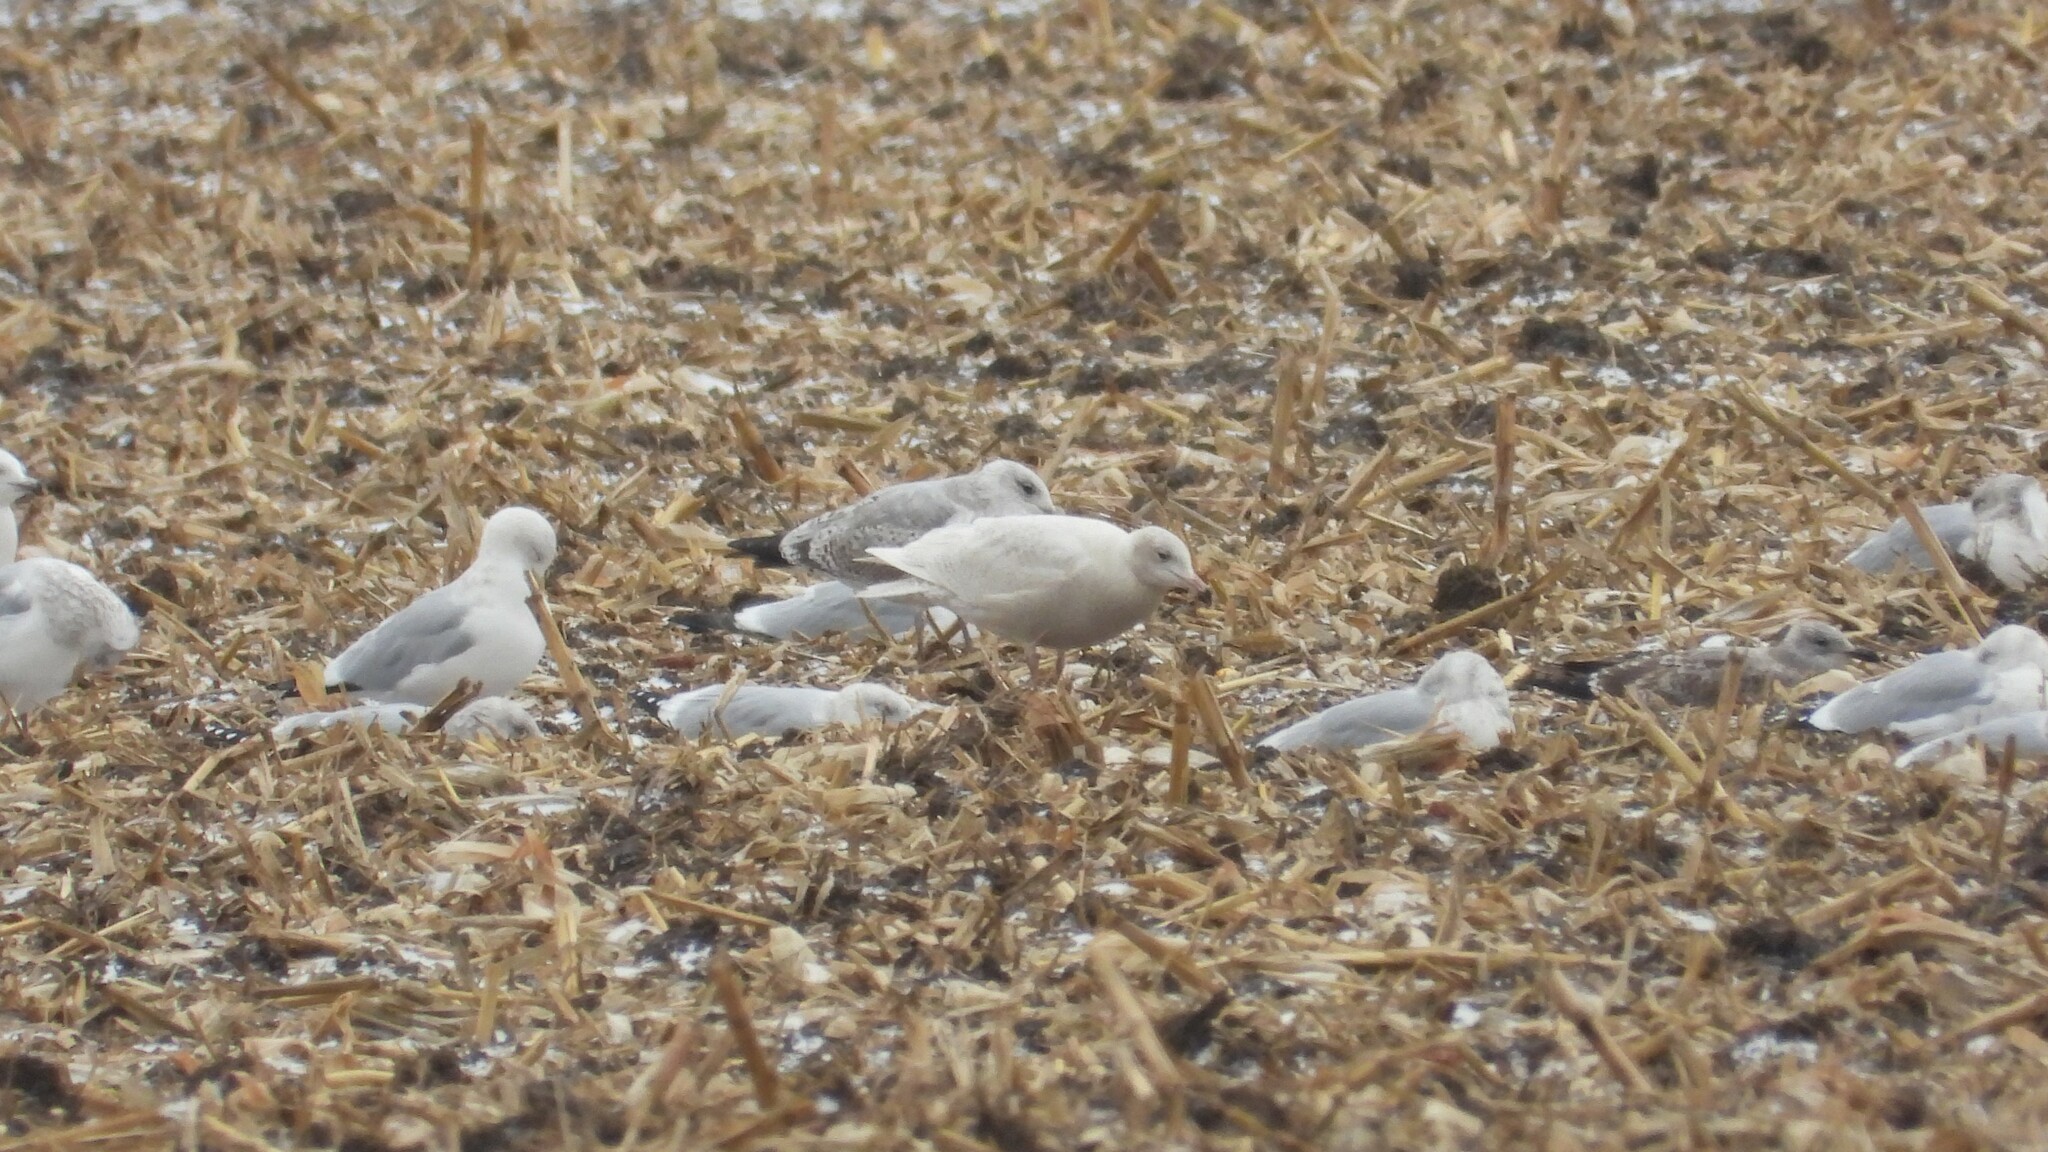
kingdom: Animalia
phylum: Chordata
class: Aves
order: Charadriiformes
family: Laridae
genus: Larus
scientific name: Larus hyperboreus
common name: Glaucous gull
